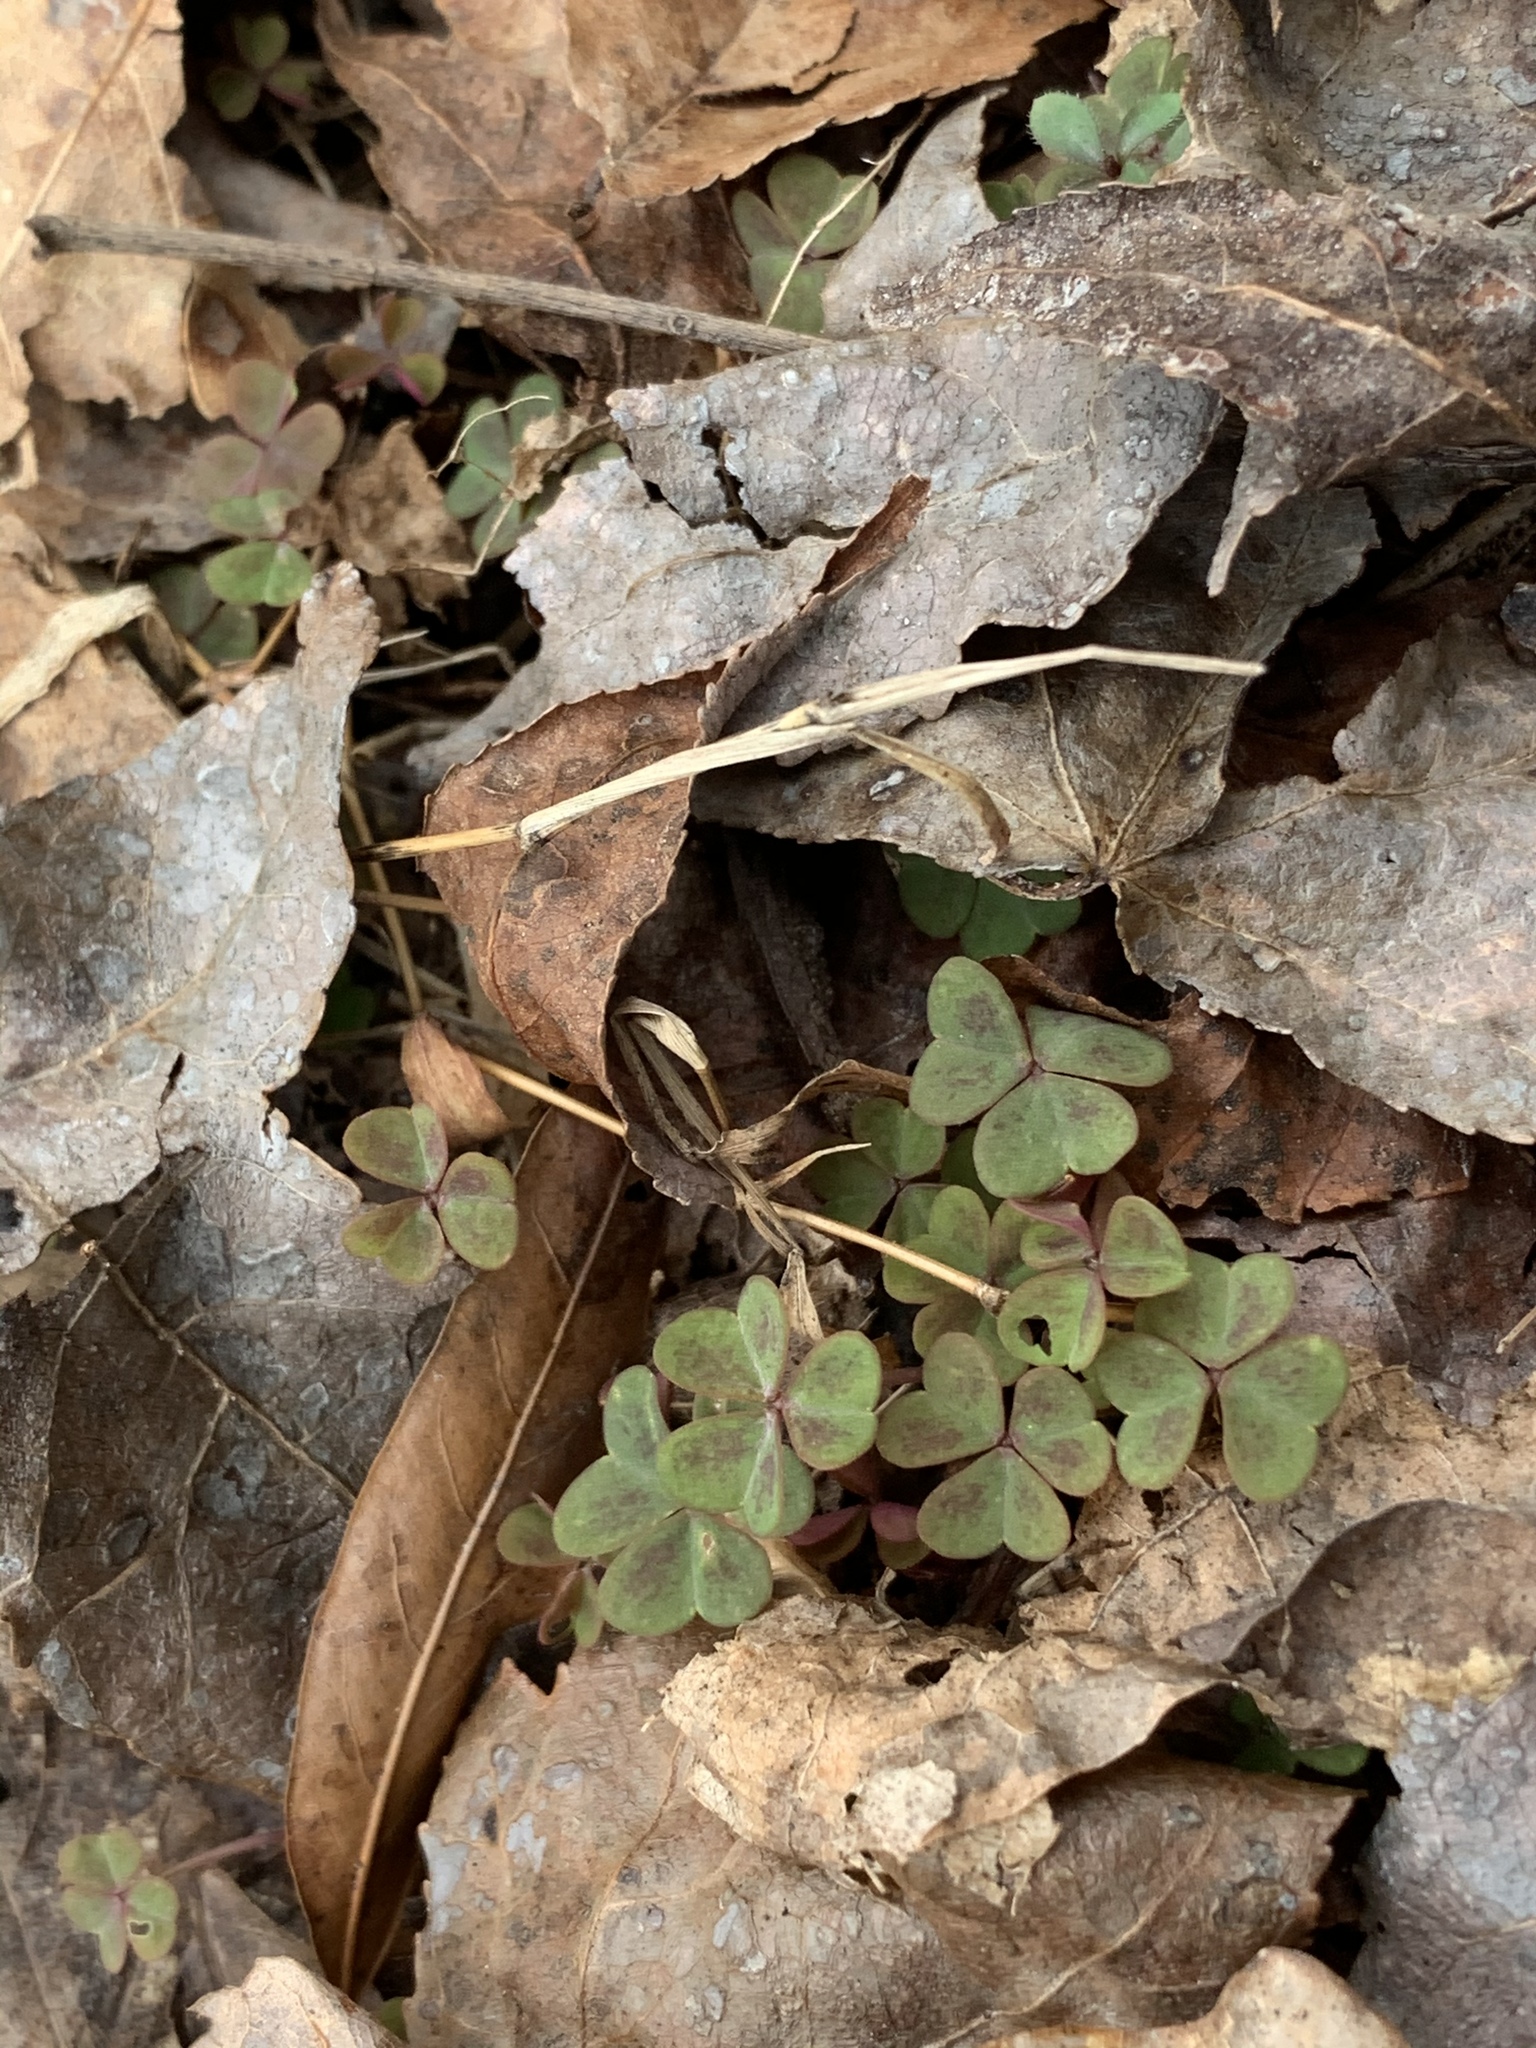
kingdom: Plantae
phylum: Tracheophyta
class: Magnoliopsida
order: Oxalidales
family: Oxalidaceae
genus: Oxalis
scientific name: Oxalis violacea
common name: Violet wood-sorrel
